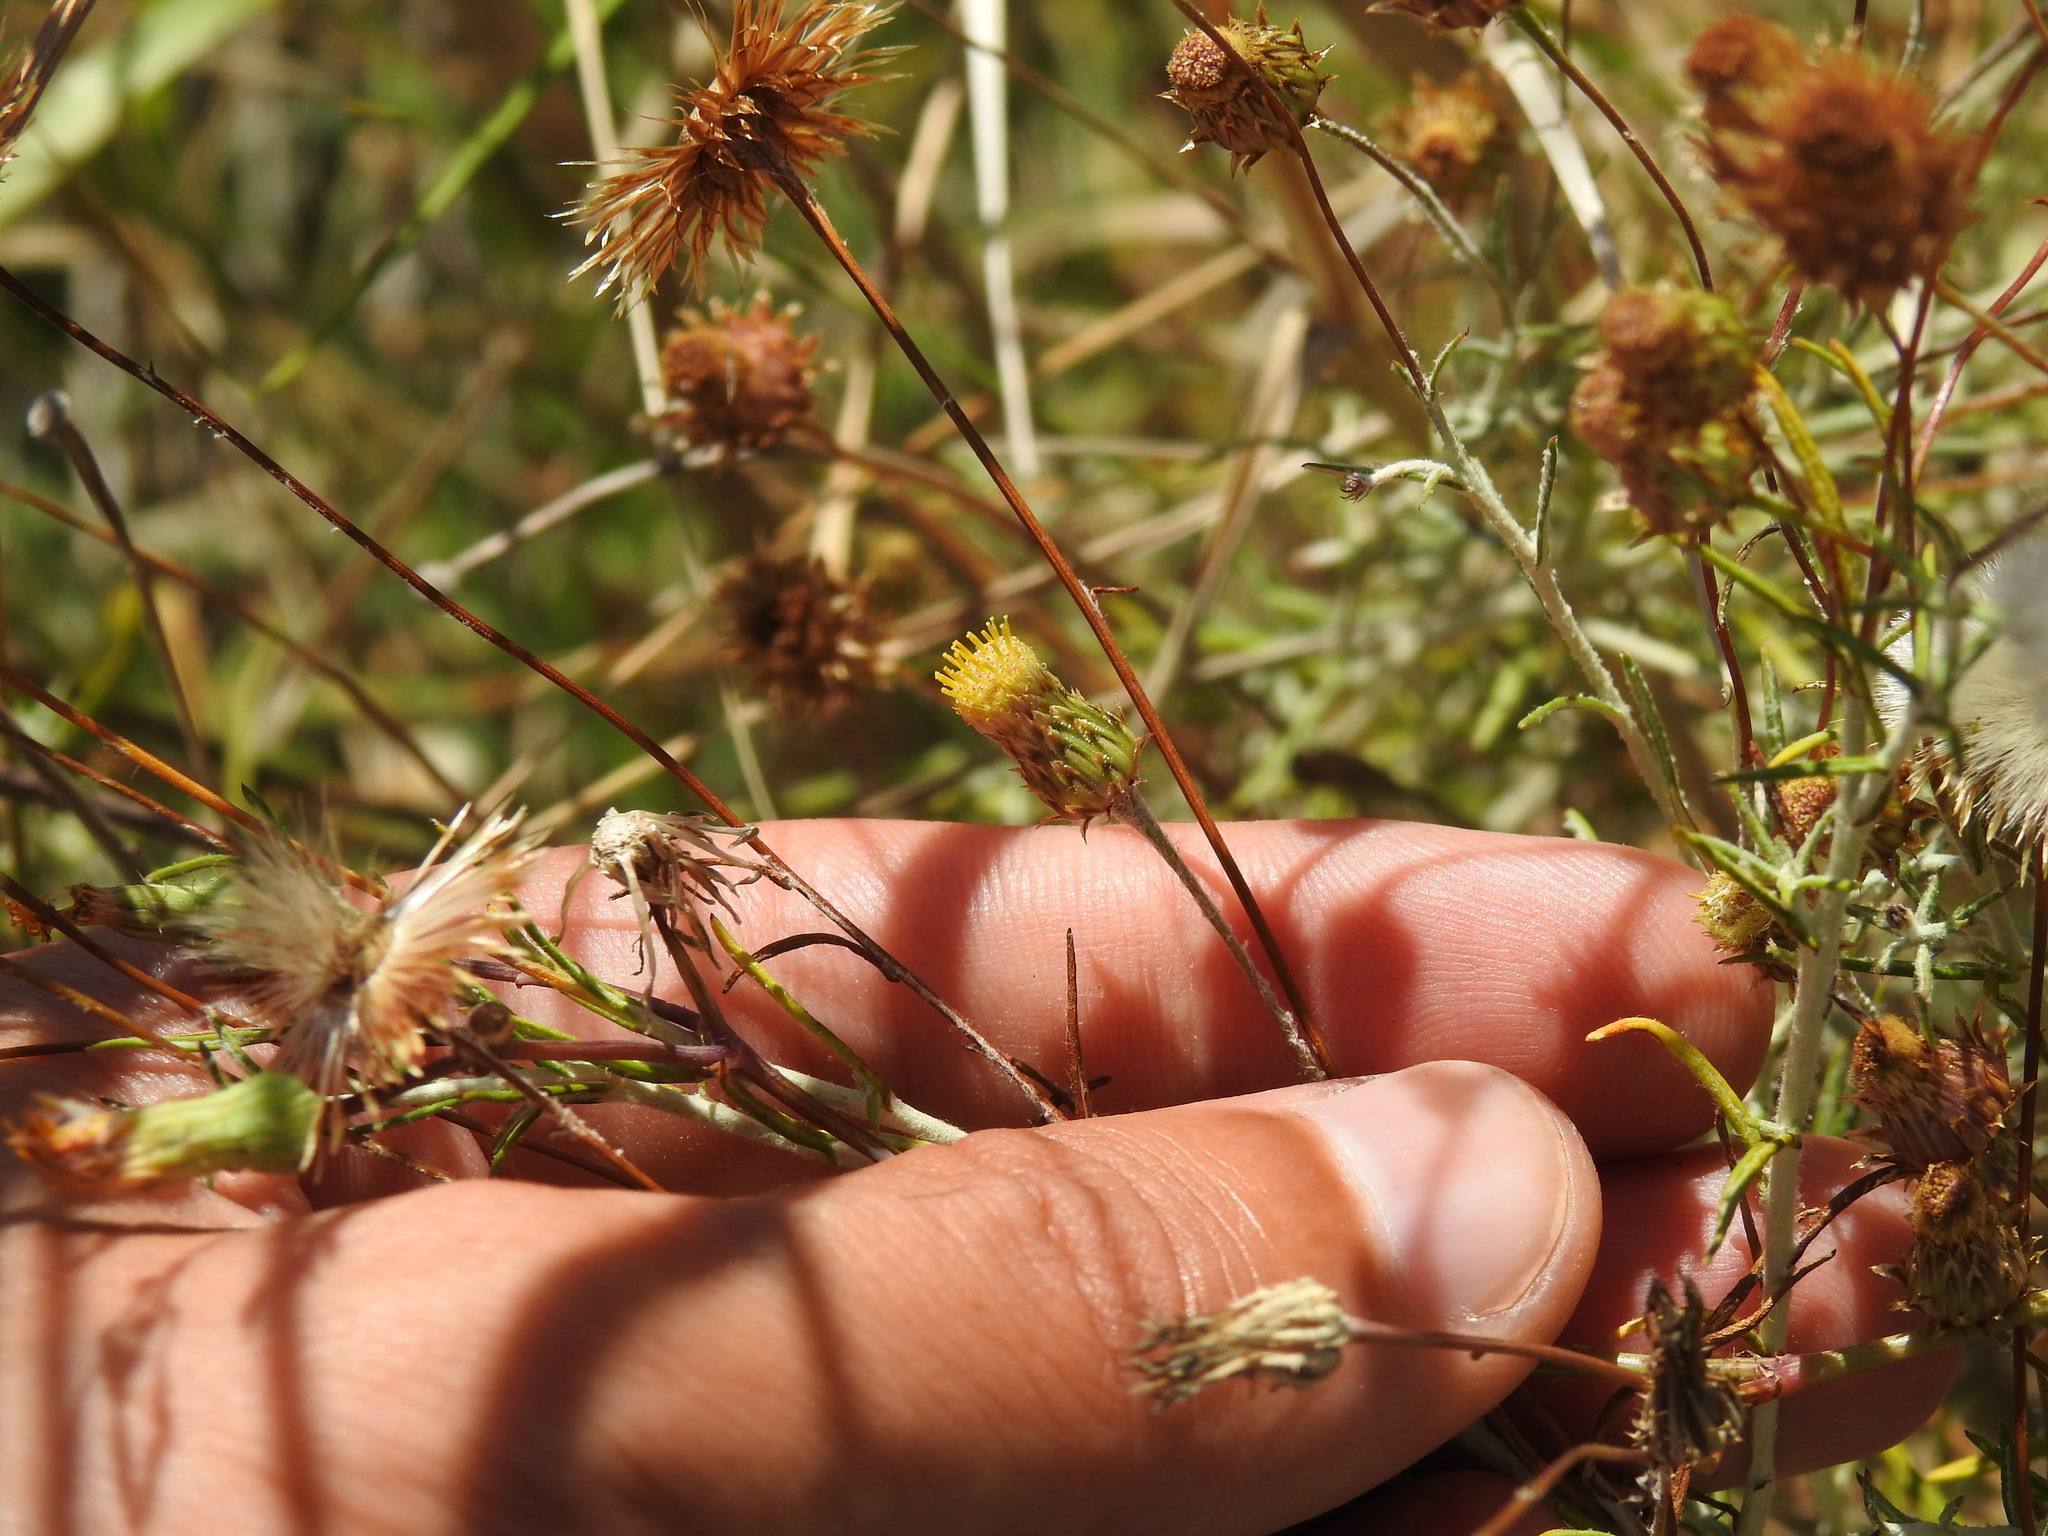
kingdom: Plantae
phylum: Tracheophyta
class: Magnoliopsida
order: Asterales
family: Asteraceae
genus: Phagnalon
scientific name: Phagnalon saxatile
